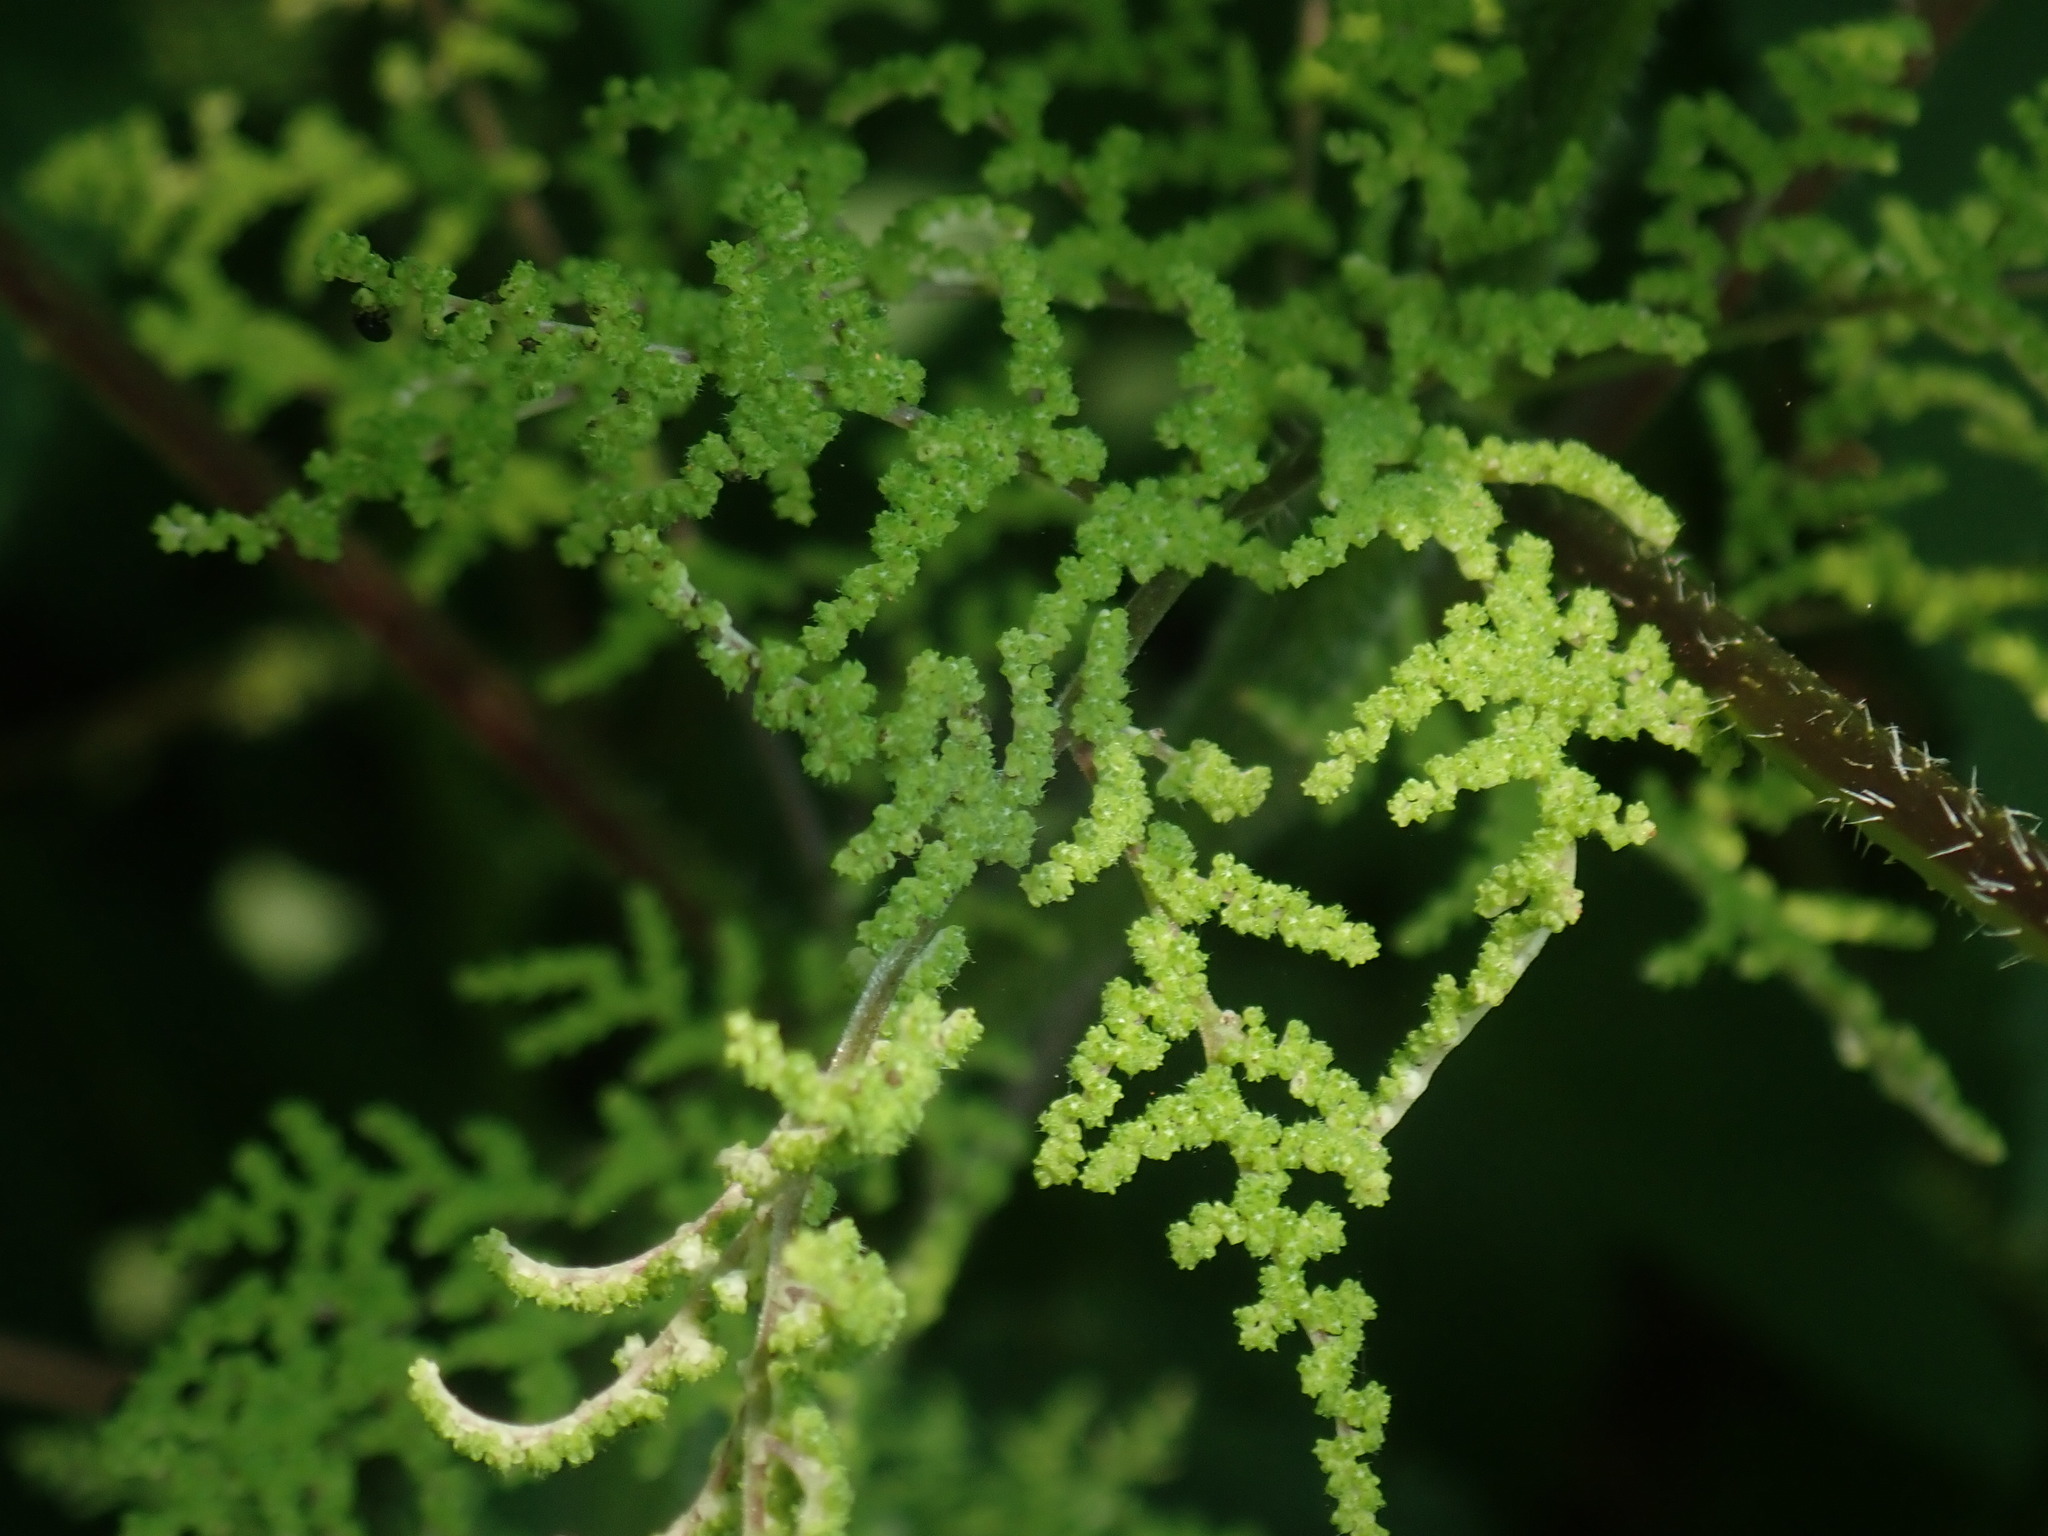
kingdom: Plantae
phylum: Tracheophyta
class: Magnoliopsida
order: Rosales
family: Urticaceae
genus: Laportea
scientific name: Laportea canadensis
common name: Canada nettle
